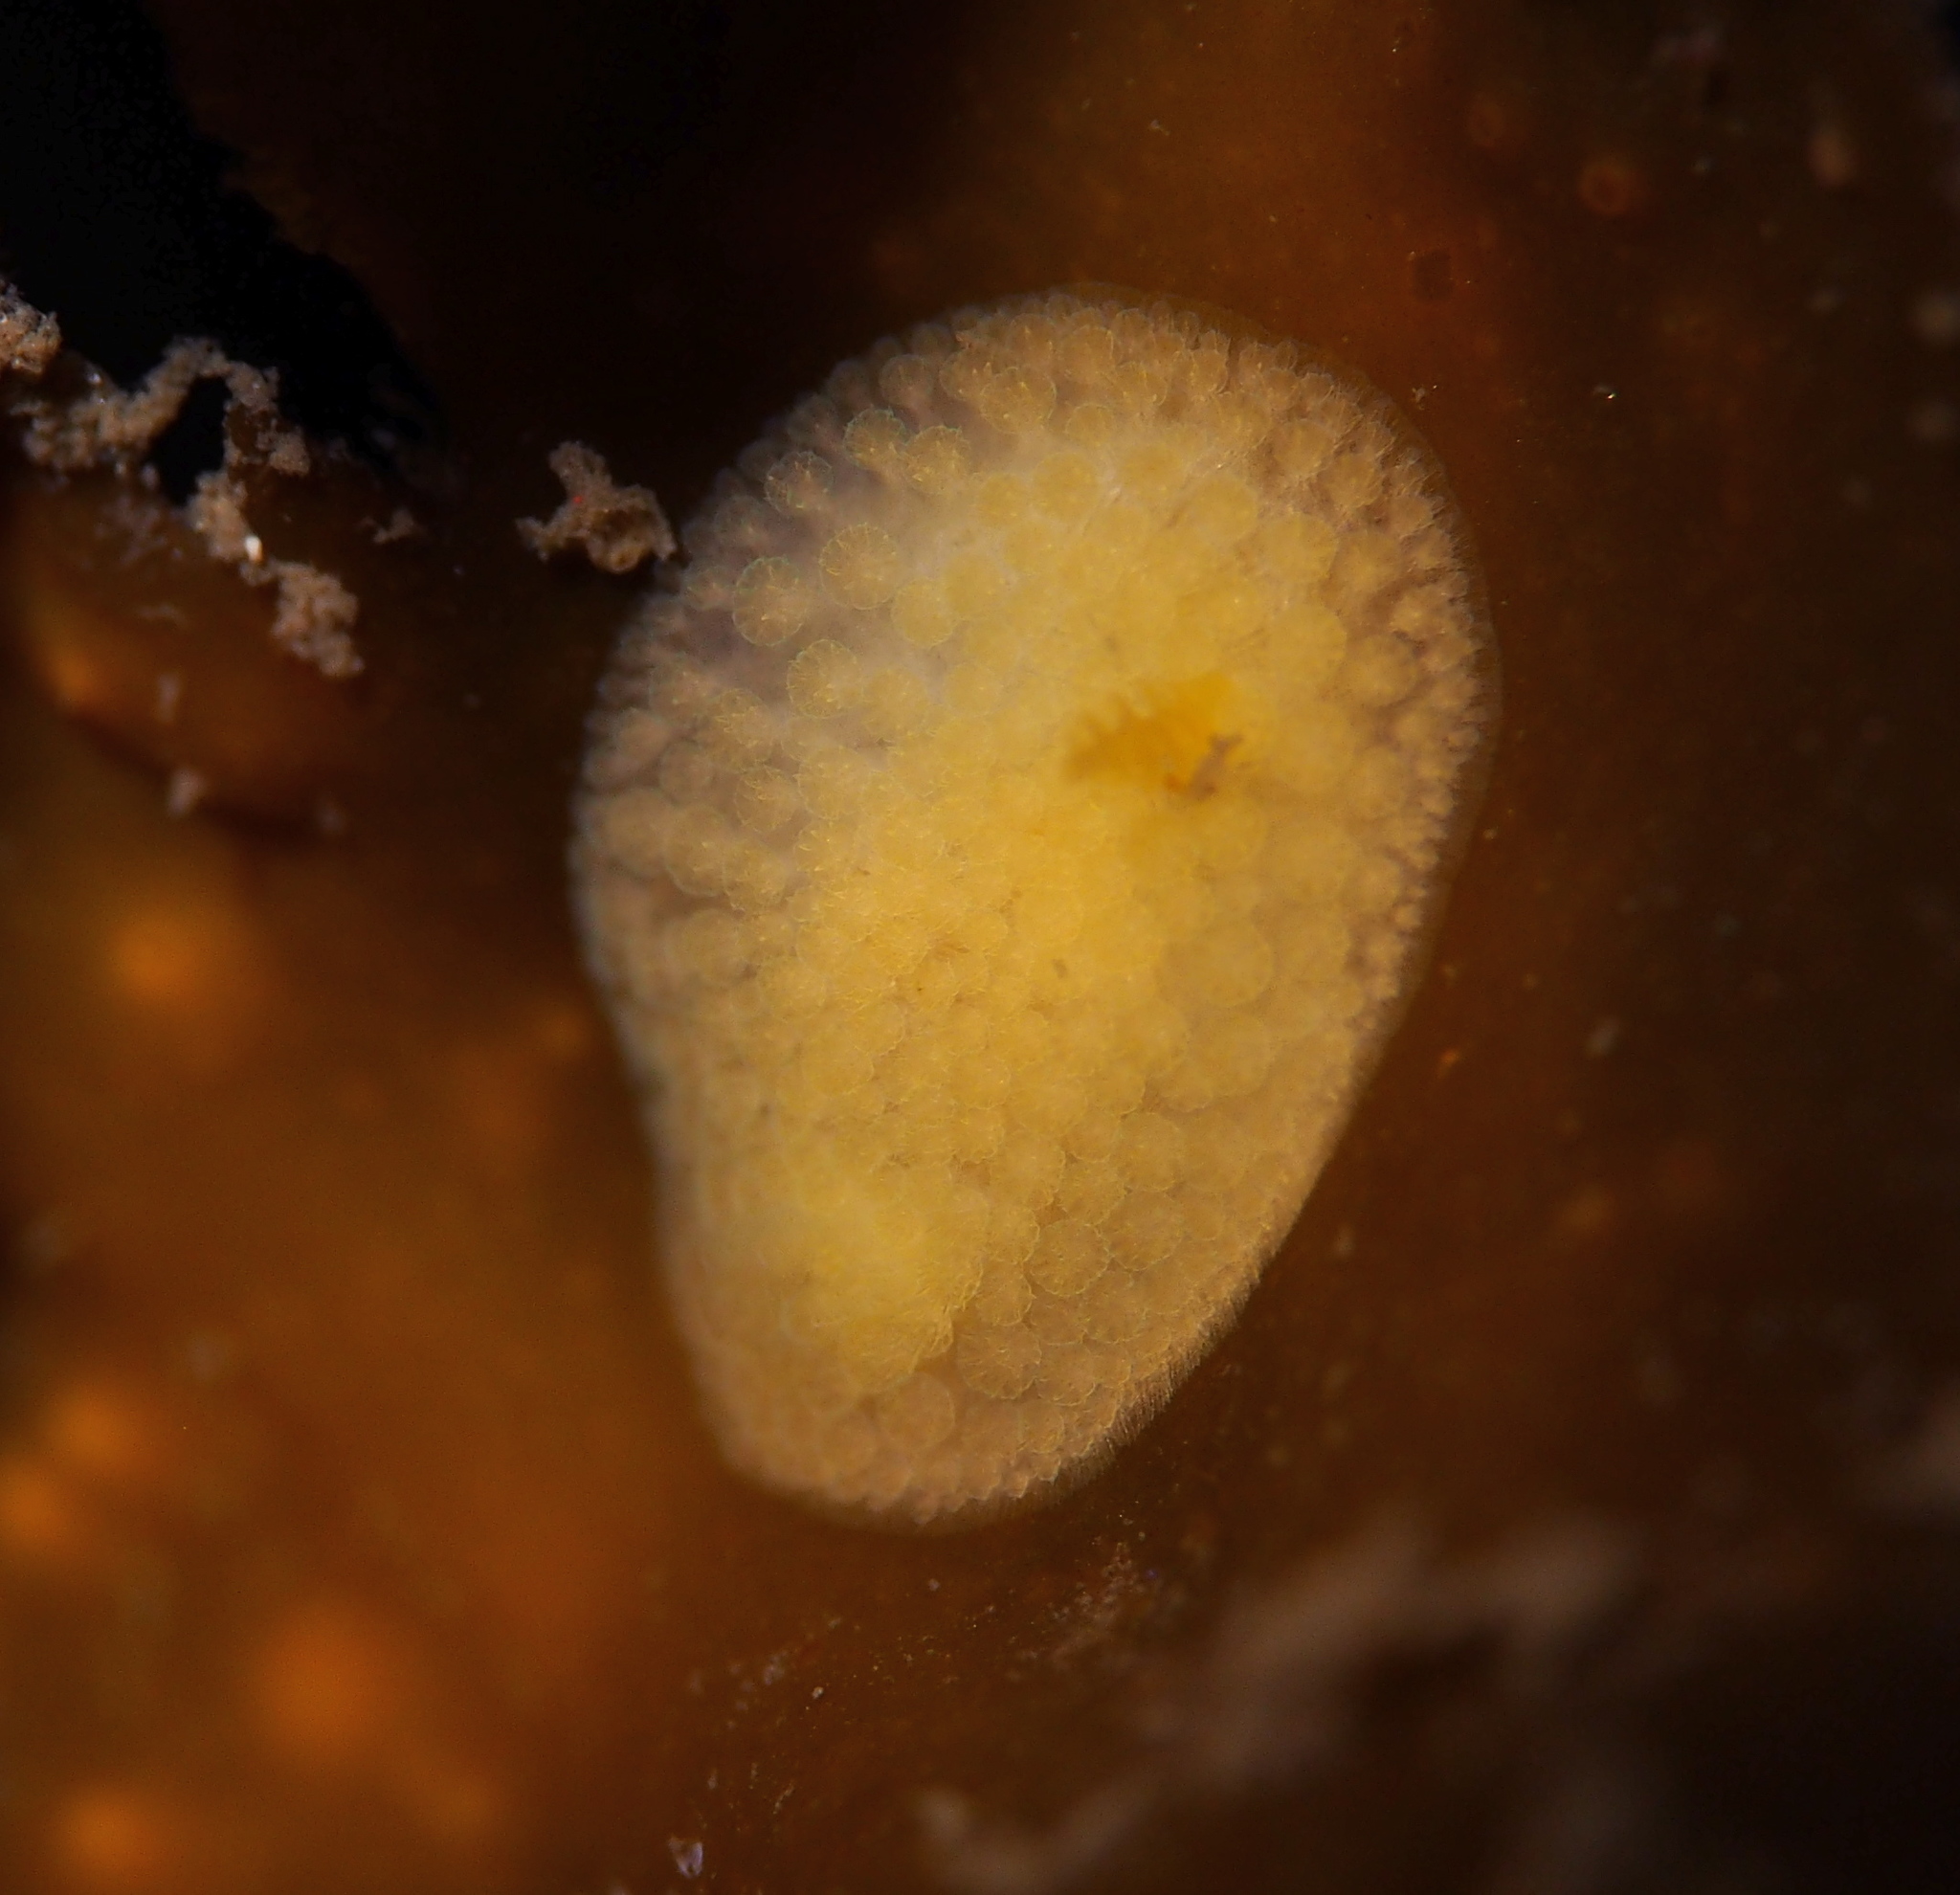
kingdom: Animalia
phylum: Mollusca
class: Gastropoda
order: Nudibranchia
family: Onchidorididae
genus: Onchidoris
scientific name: Onchidoris muricata
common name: Rough doris
